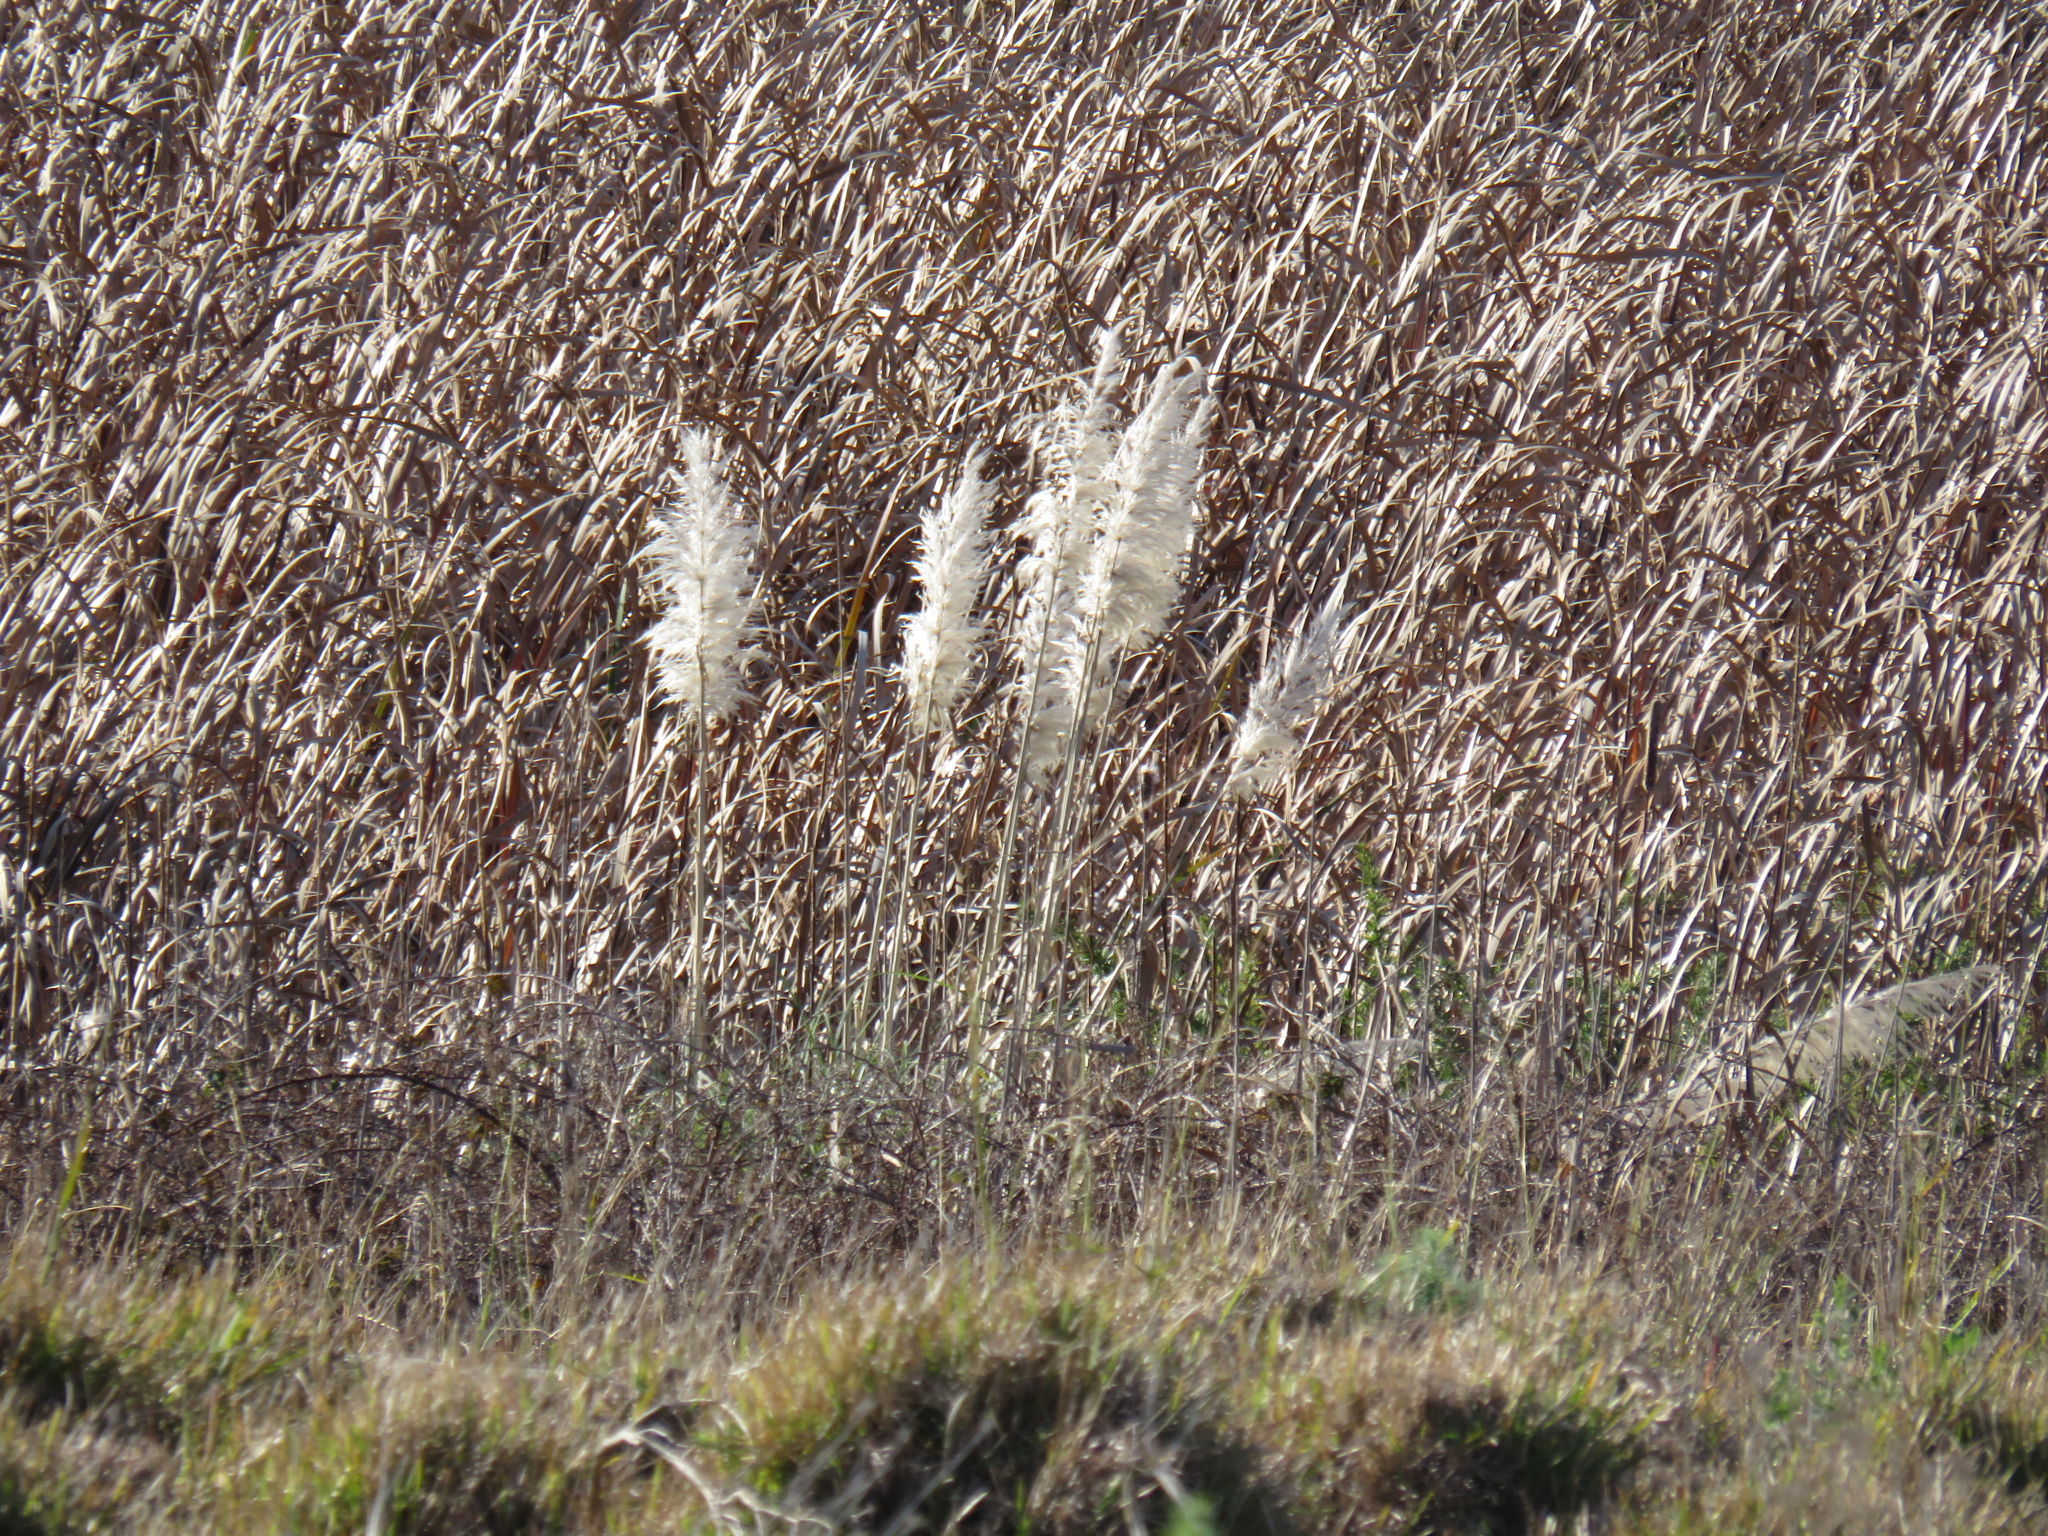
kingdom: Plantae
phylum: Tracheophyta
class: Liliopsida
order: Poales
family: Poaceae
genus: Cortaderia
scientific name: Cortaderia selloana
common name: Uruguayan pampas grass
